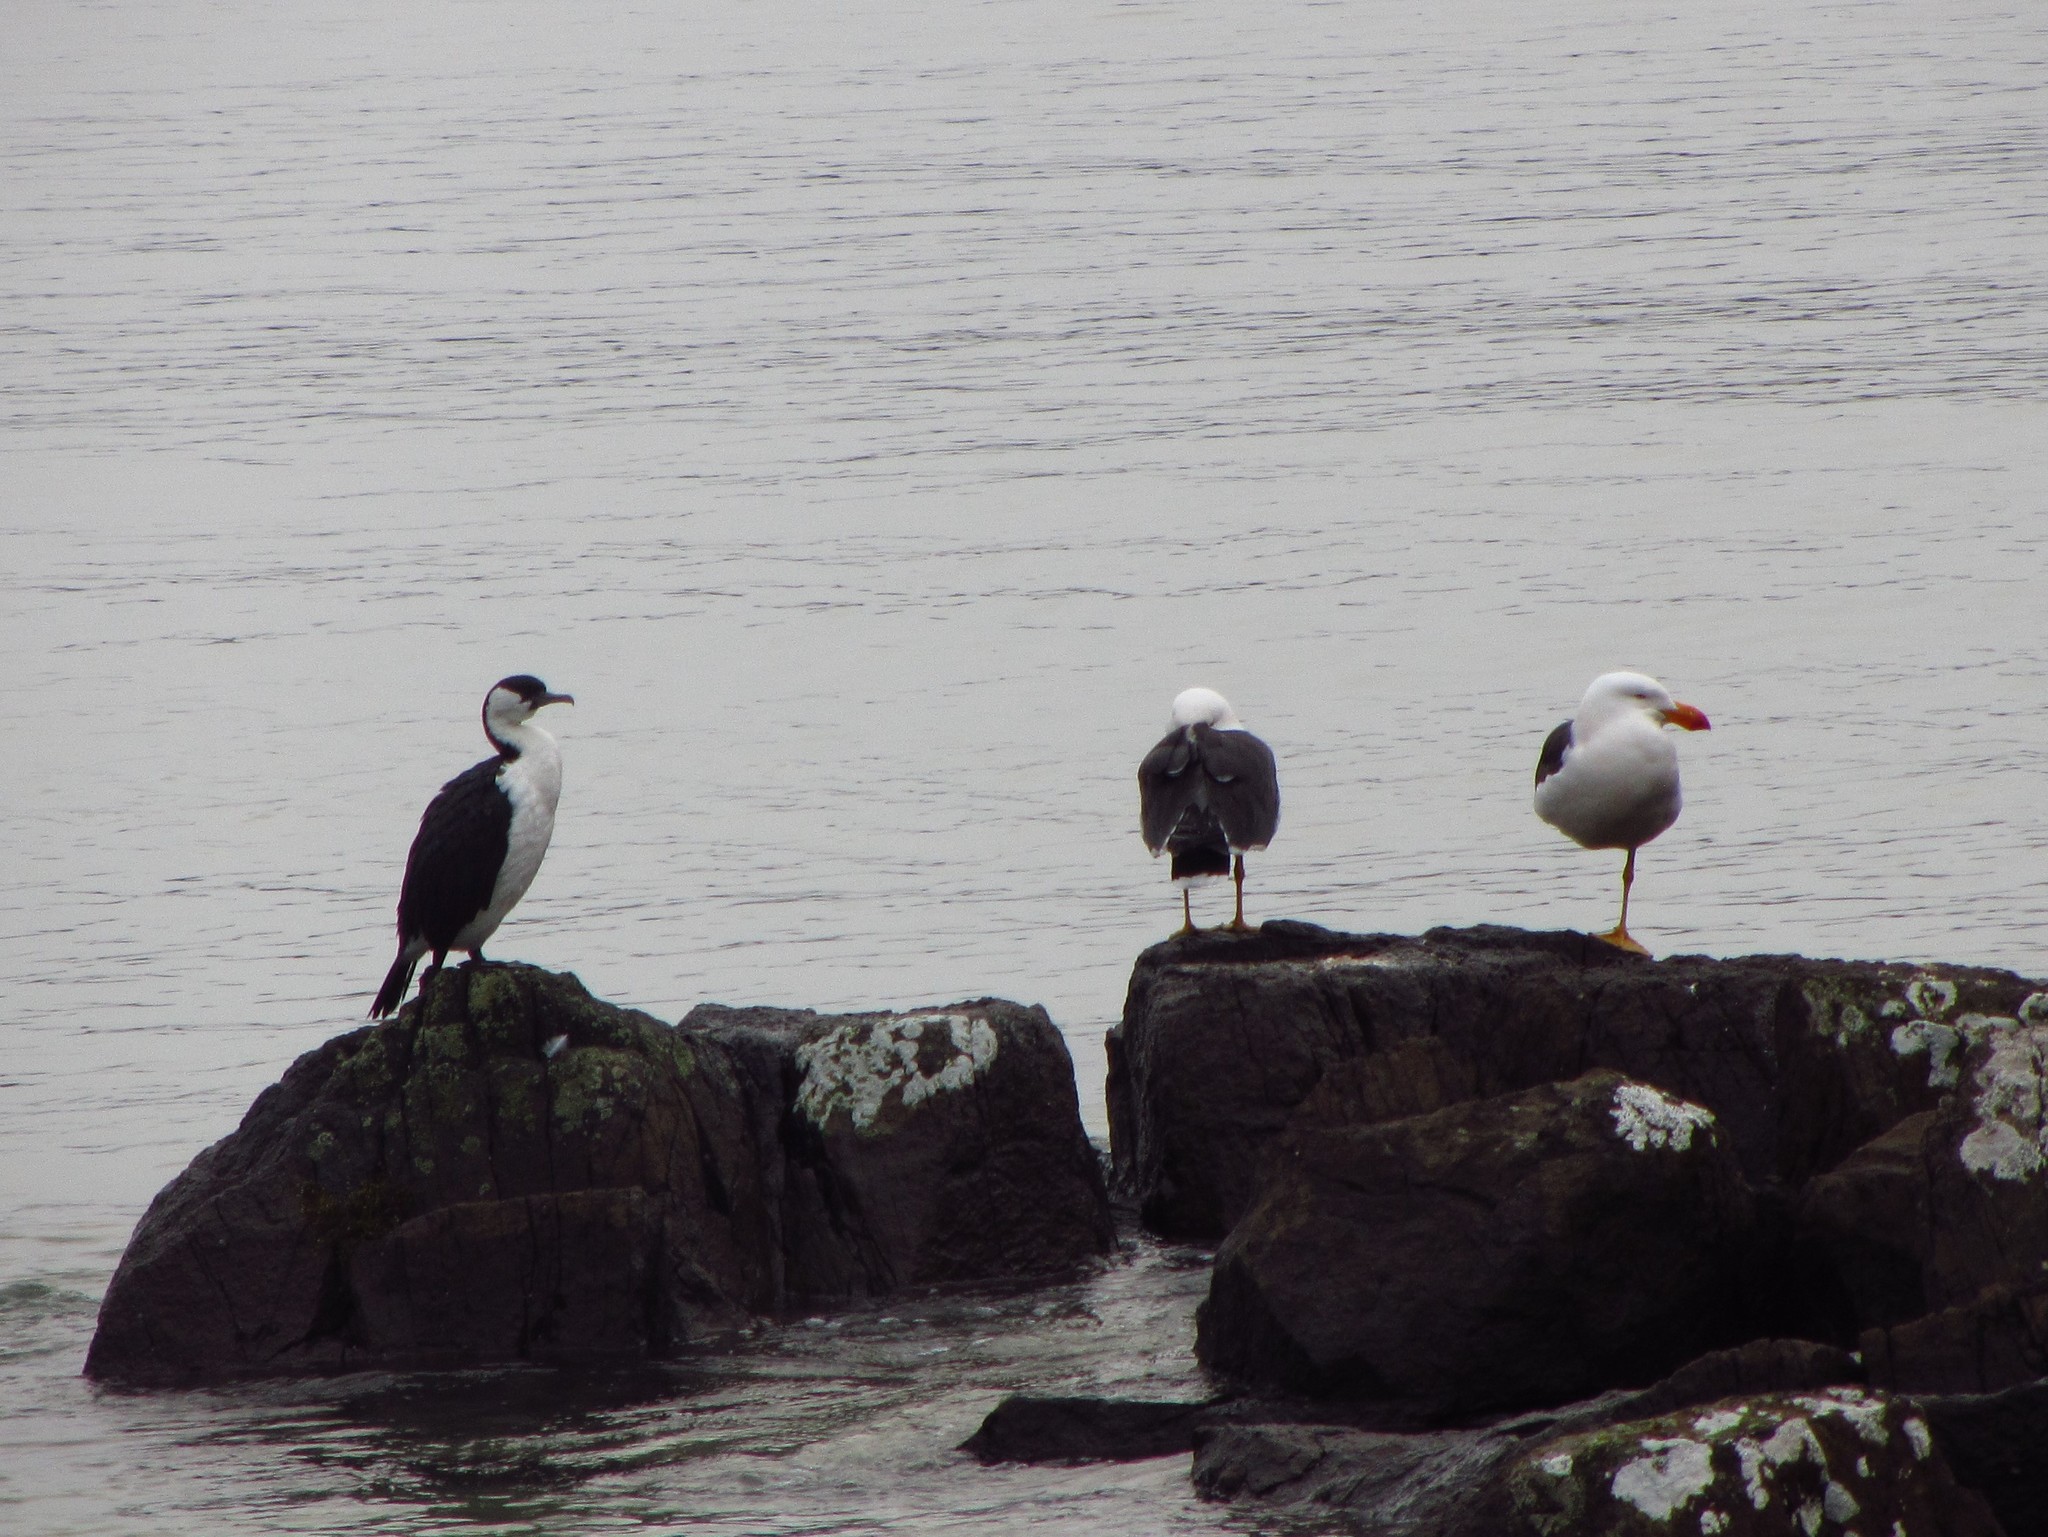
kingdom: Animalia
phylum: Chordata
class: Aves
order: Charadriiformes
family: Laridae
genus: Larus
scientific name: Larus pacificus
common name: Pacific gull
